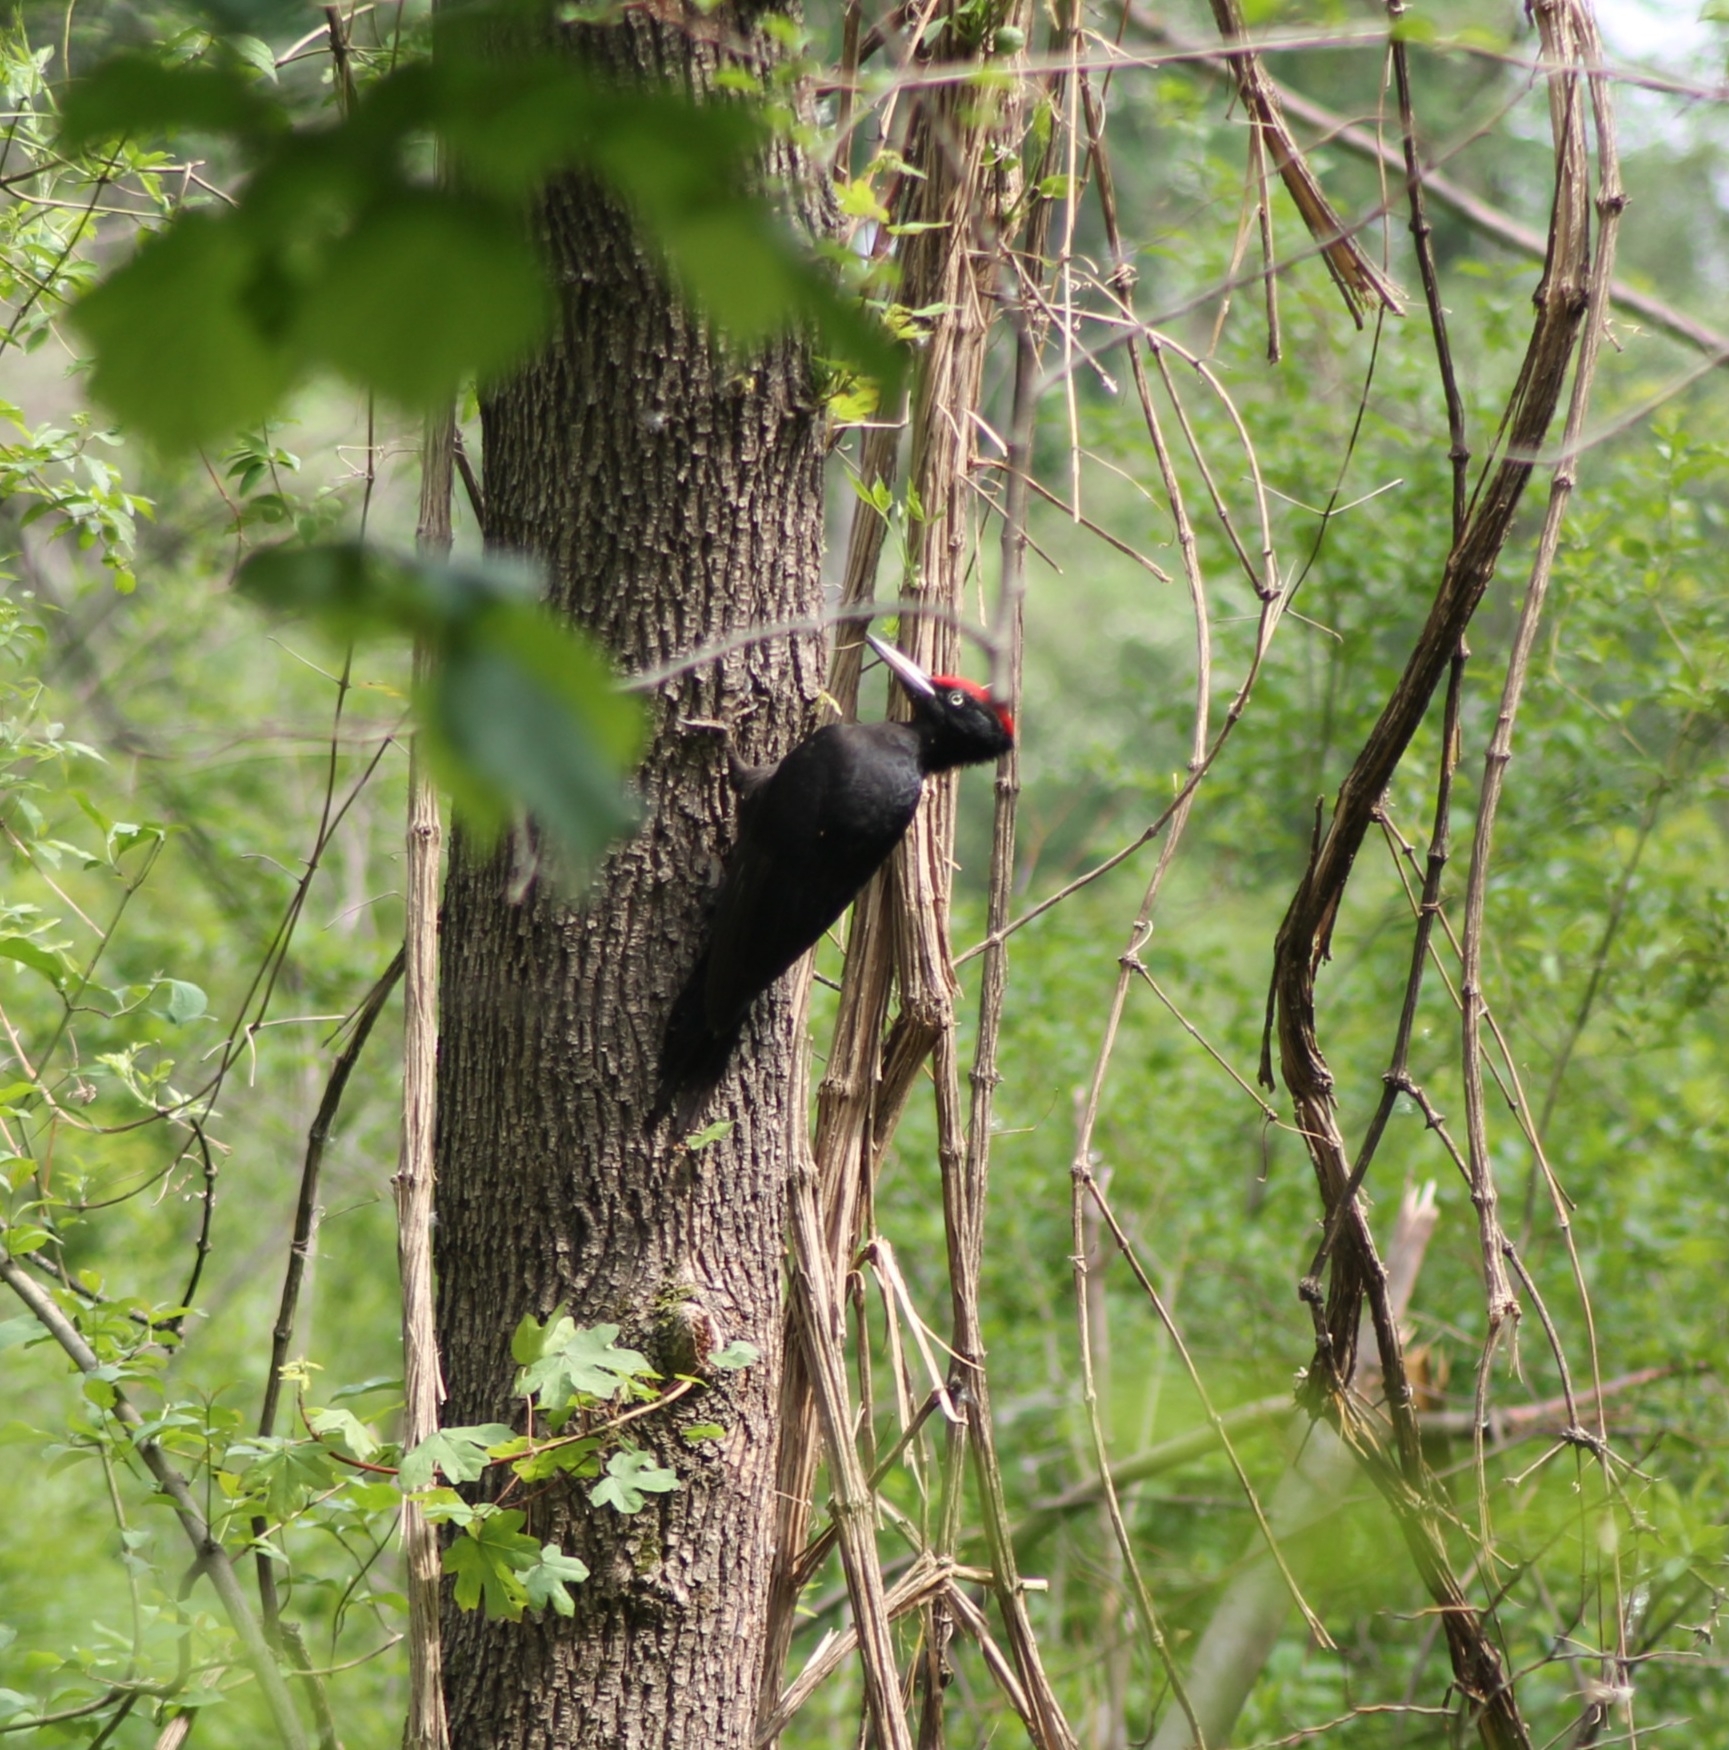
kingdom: Animalia
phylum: Chordata
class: Aves
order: Piciformes
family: Picidae
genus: Dryocopus
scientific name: Dryocopus martius
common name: Black woodpecker
